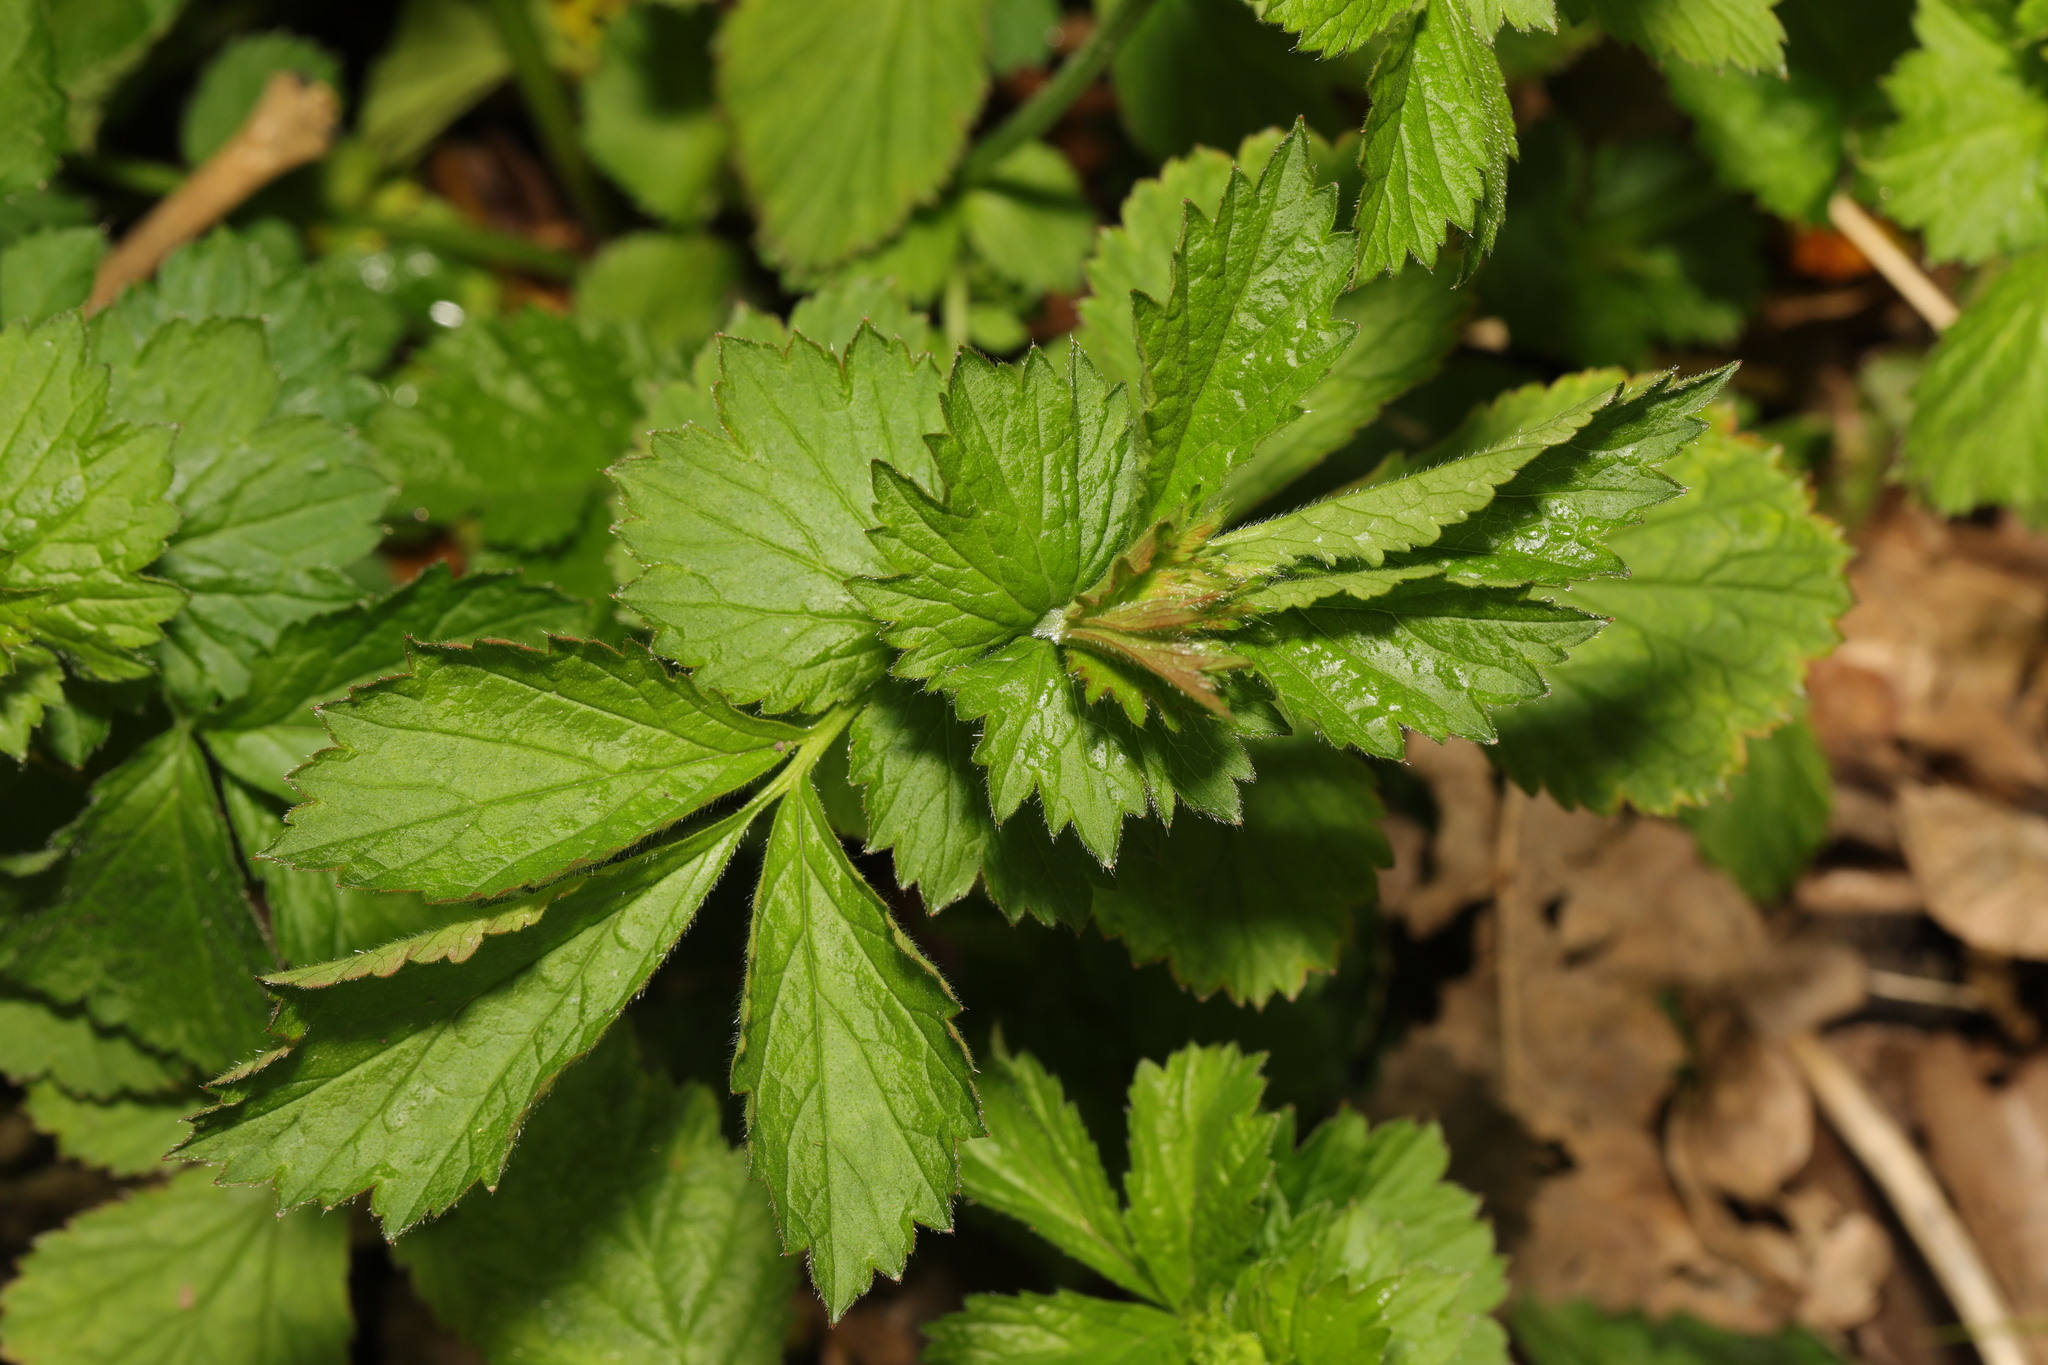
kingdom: Plantae
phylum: Tracheophyta
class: Magnoliopsida
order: Rosales
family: Rosaceae
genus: Geum
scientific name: Geum urbanum
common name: Wood avens
